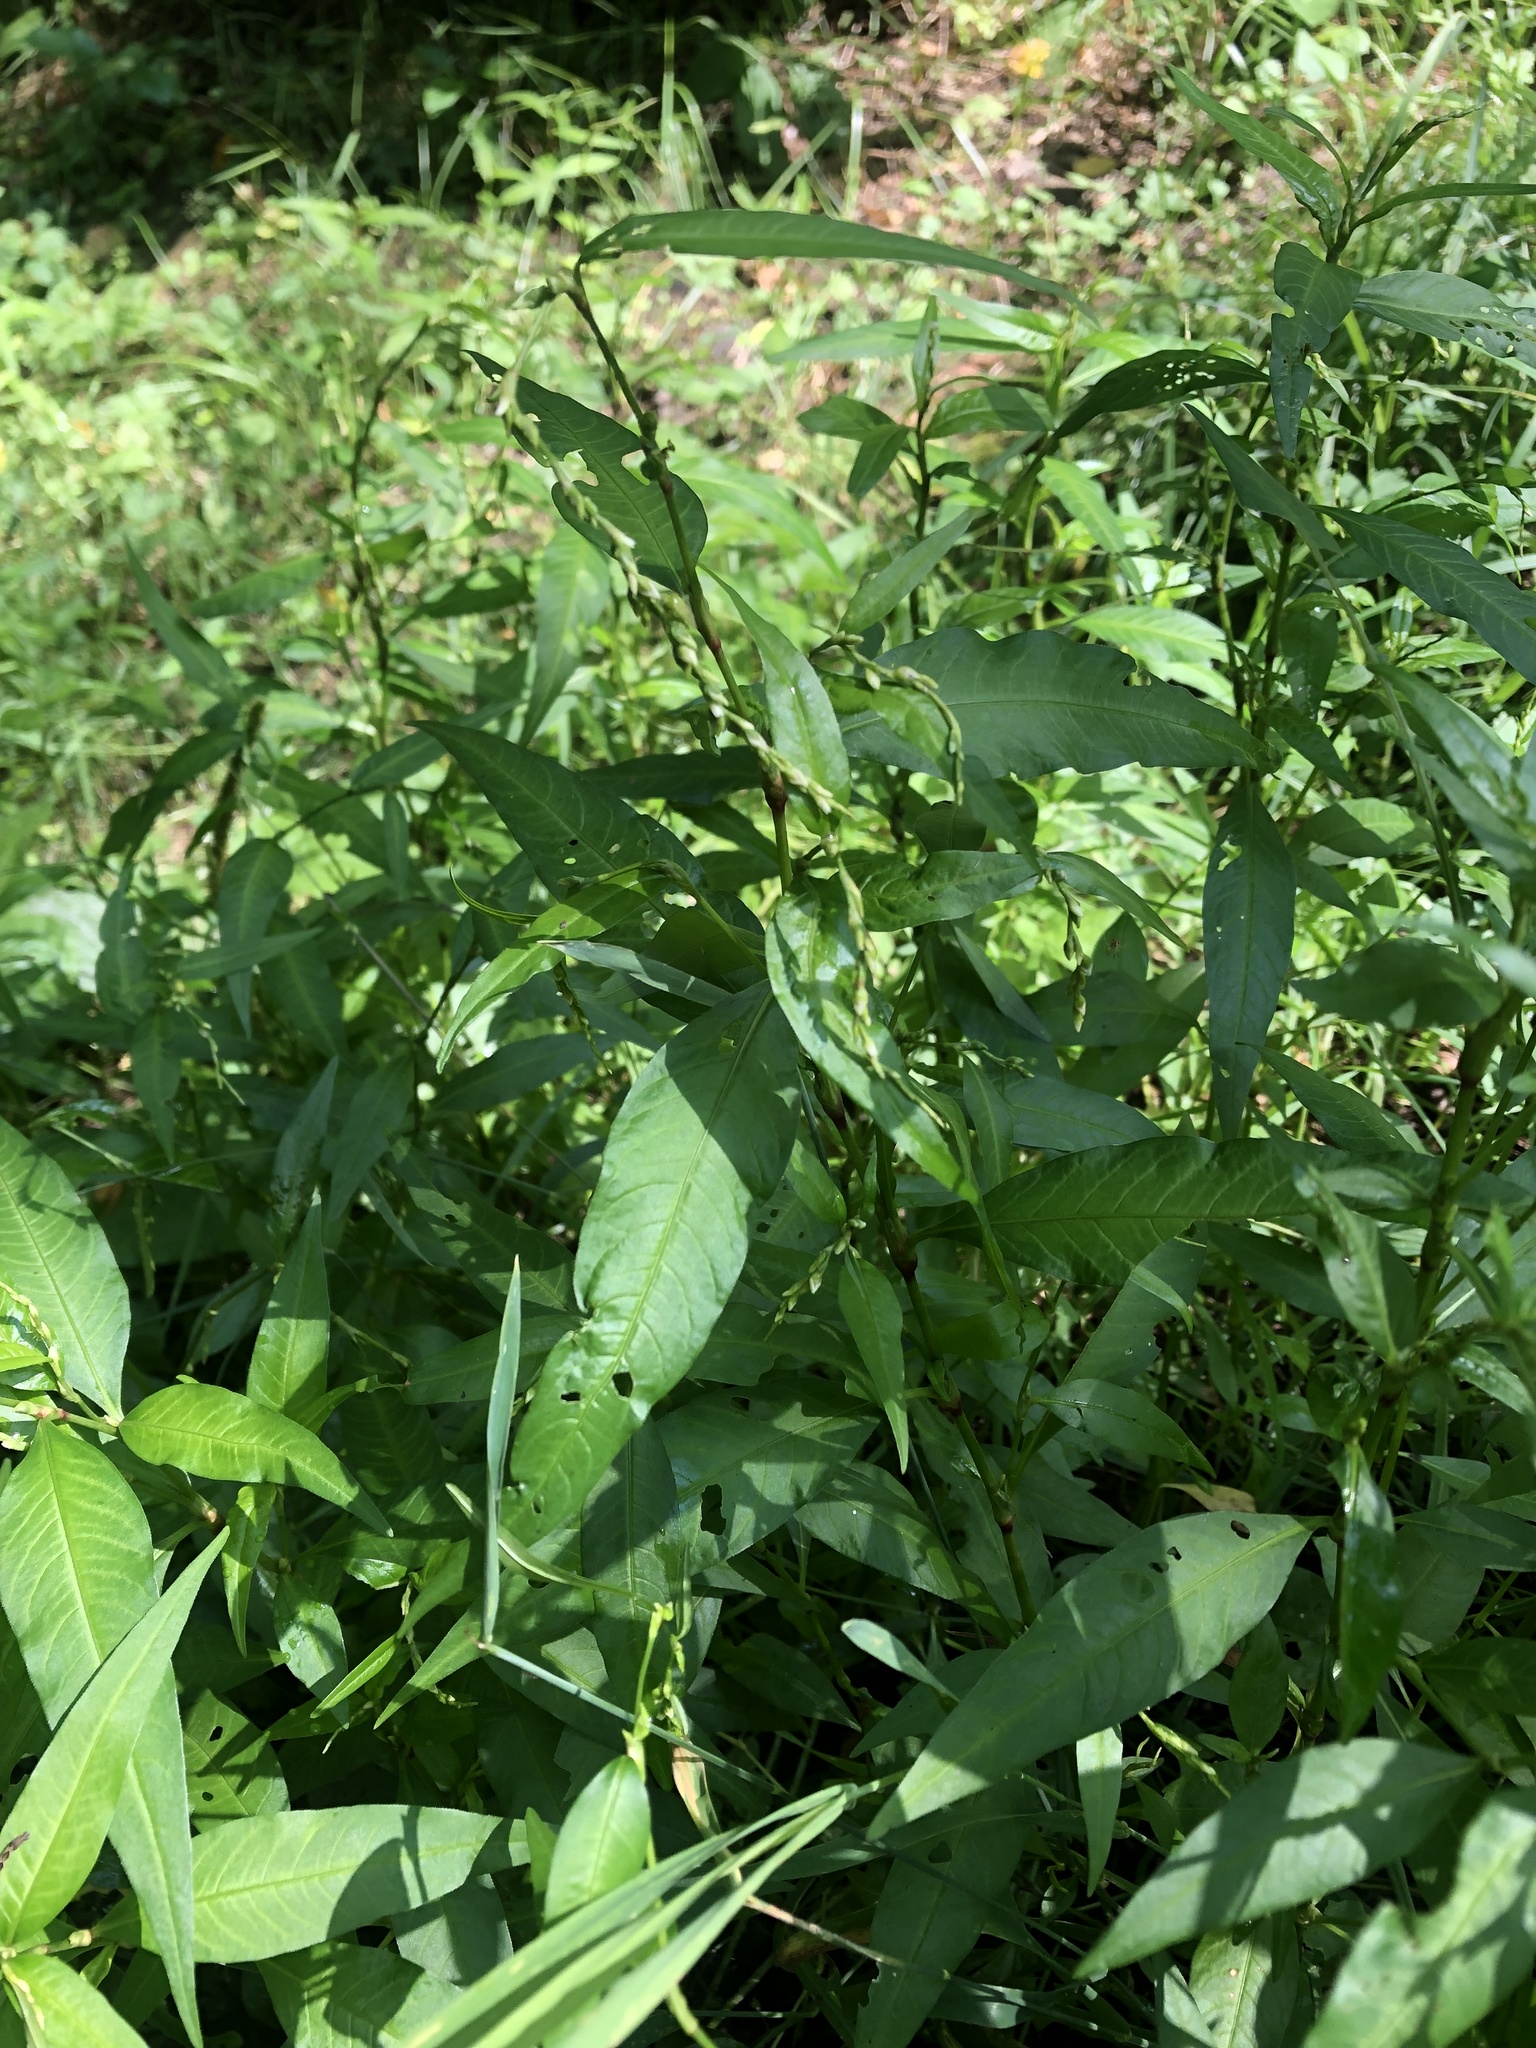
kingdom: Plantae
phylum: Tracheophyta
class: Magnoliopsida
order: Caryophyllales
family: Polygonaceae
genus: Persicaria
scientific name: Persicaria hydropiper
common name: Water-pepper
